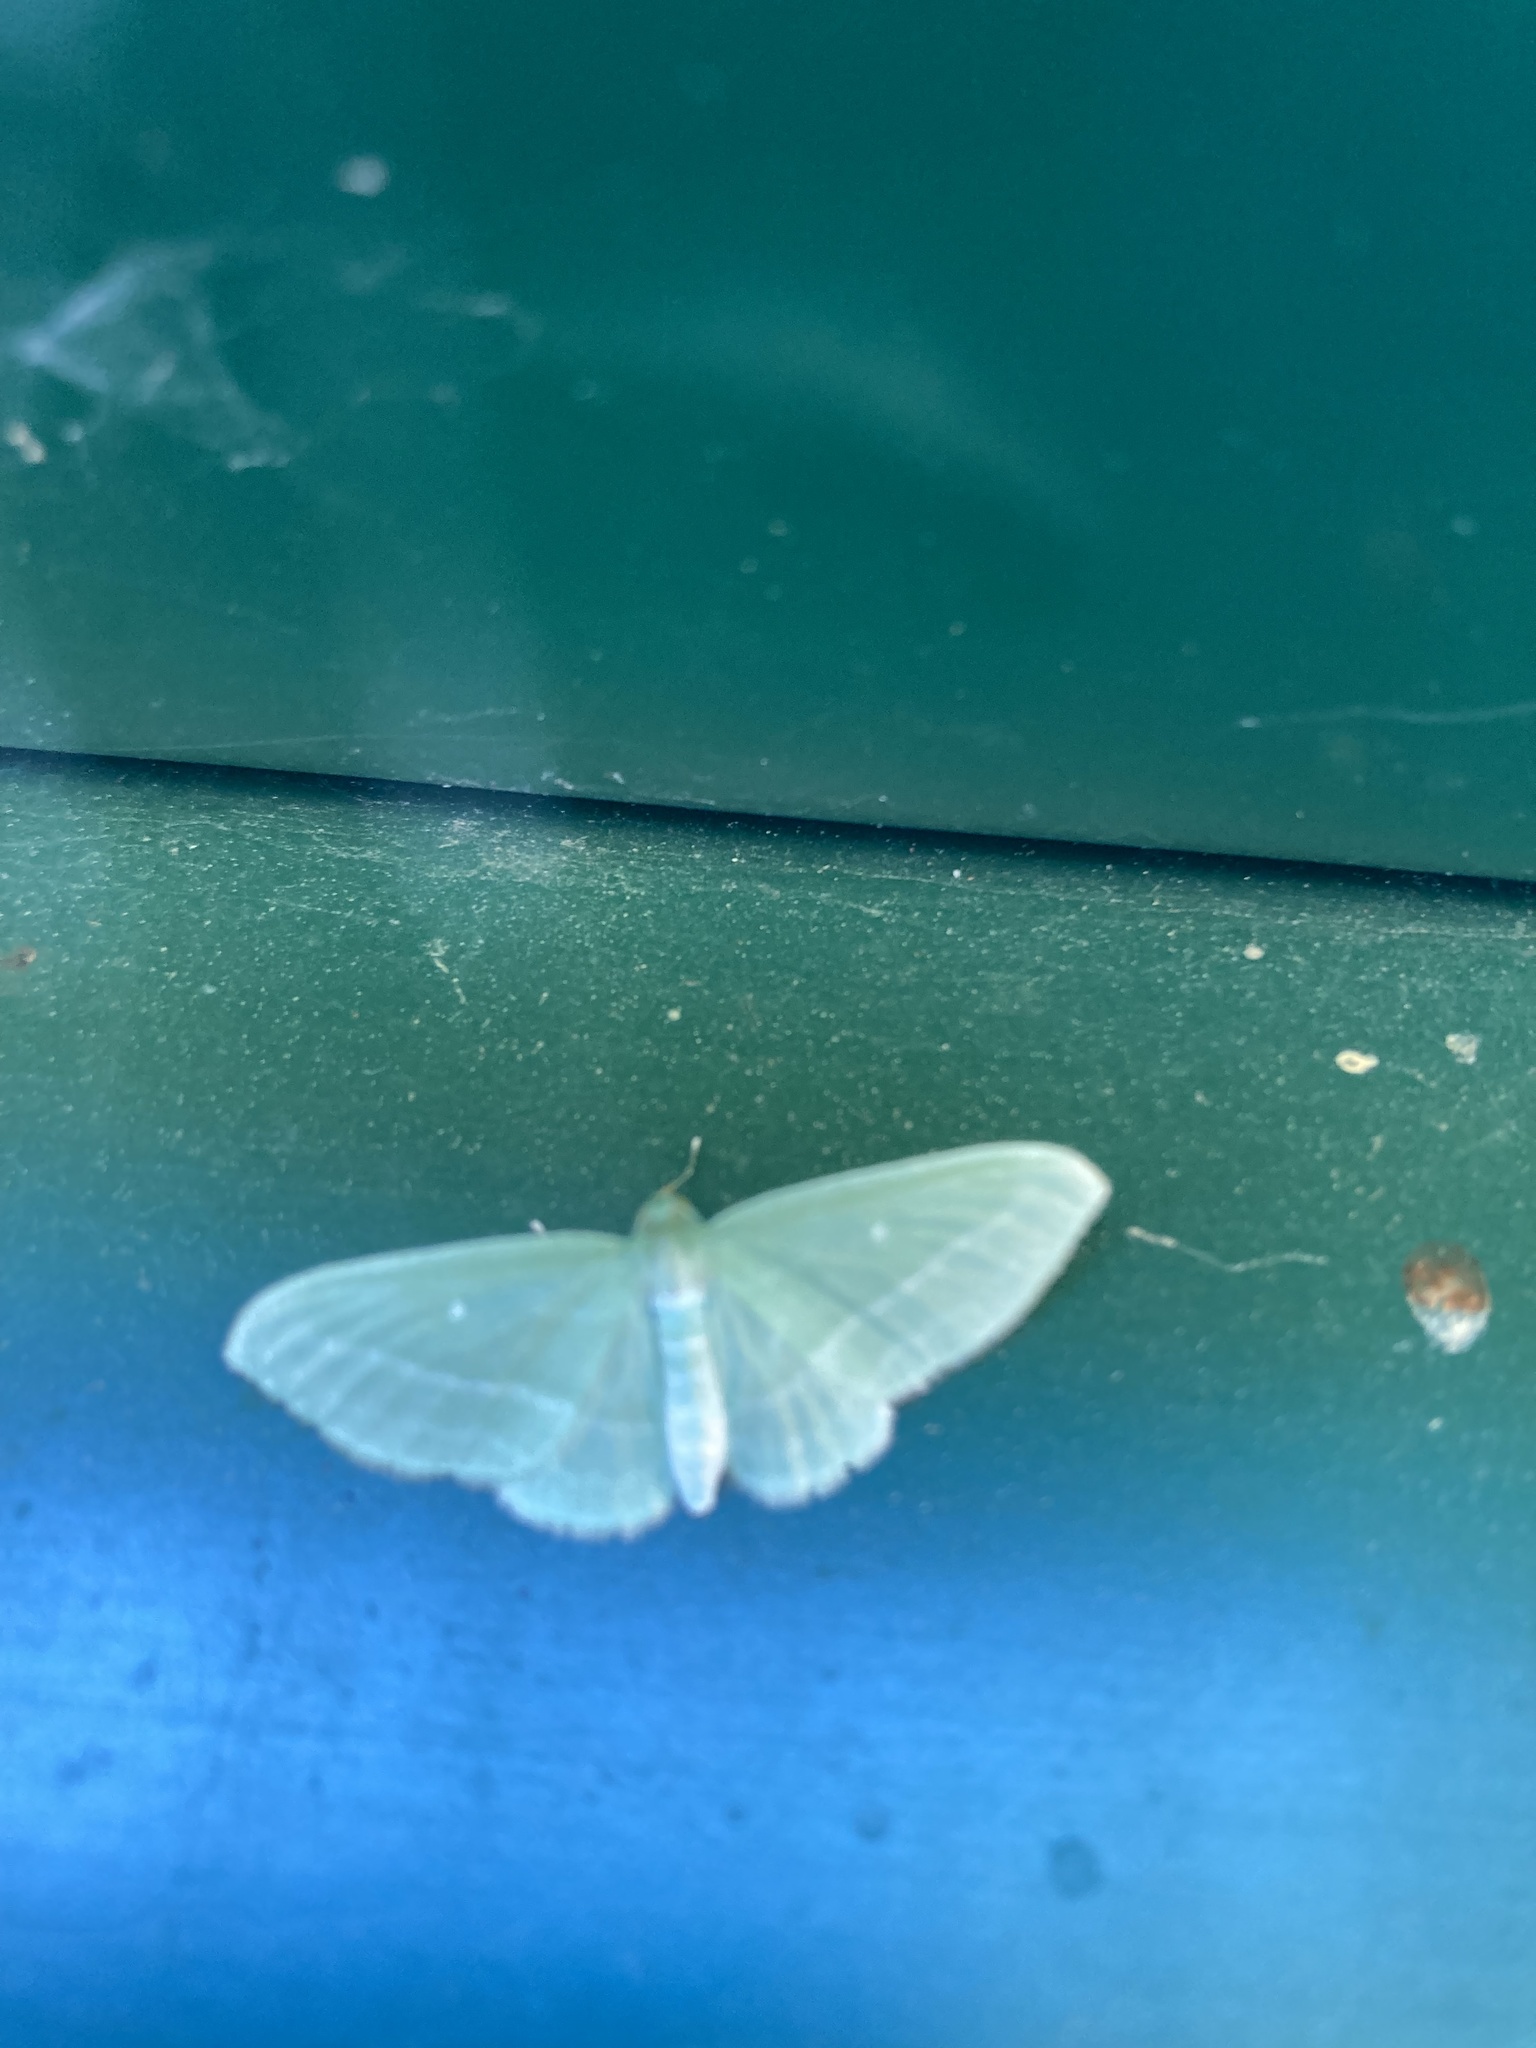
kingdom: Animalia
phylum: Arthropoda
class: Insecta
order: Lepidoptera
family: Geometridae
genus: Dyspteris
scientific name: Dyspteris abortivaria
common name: Bad-wing
